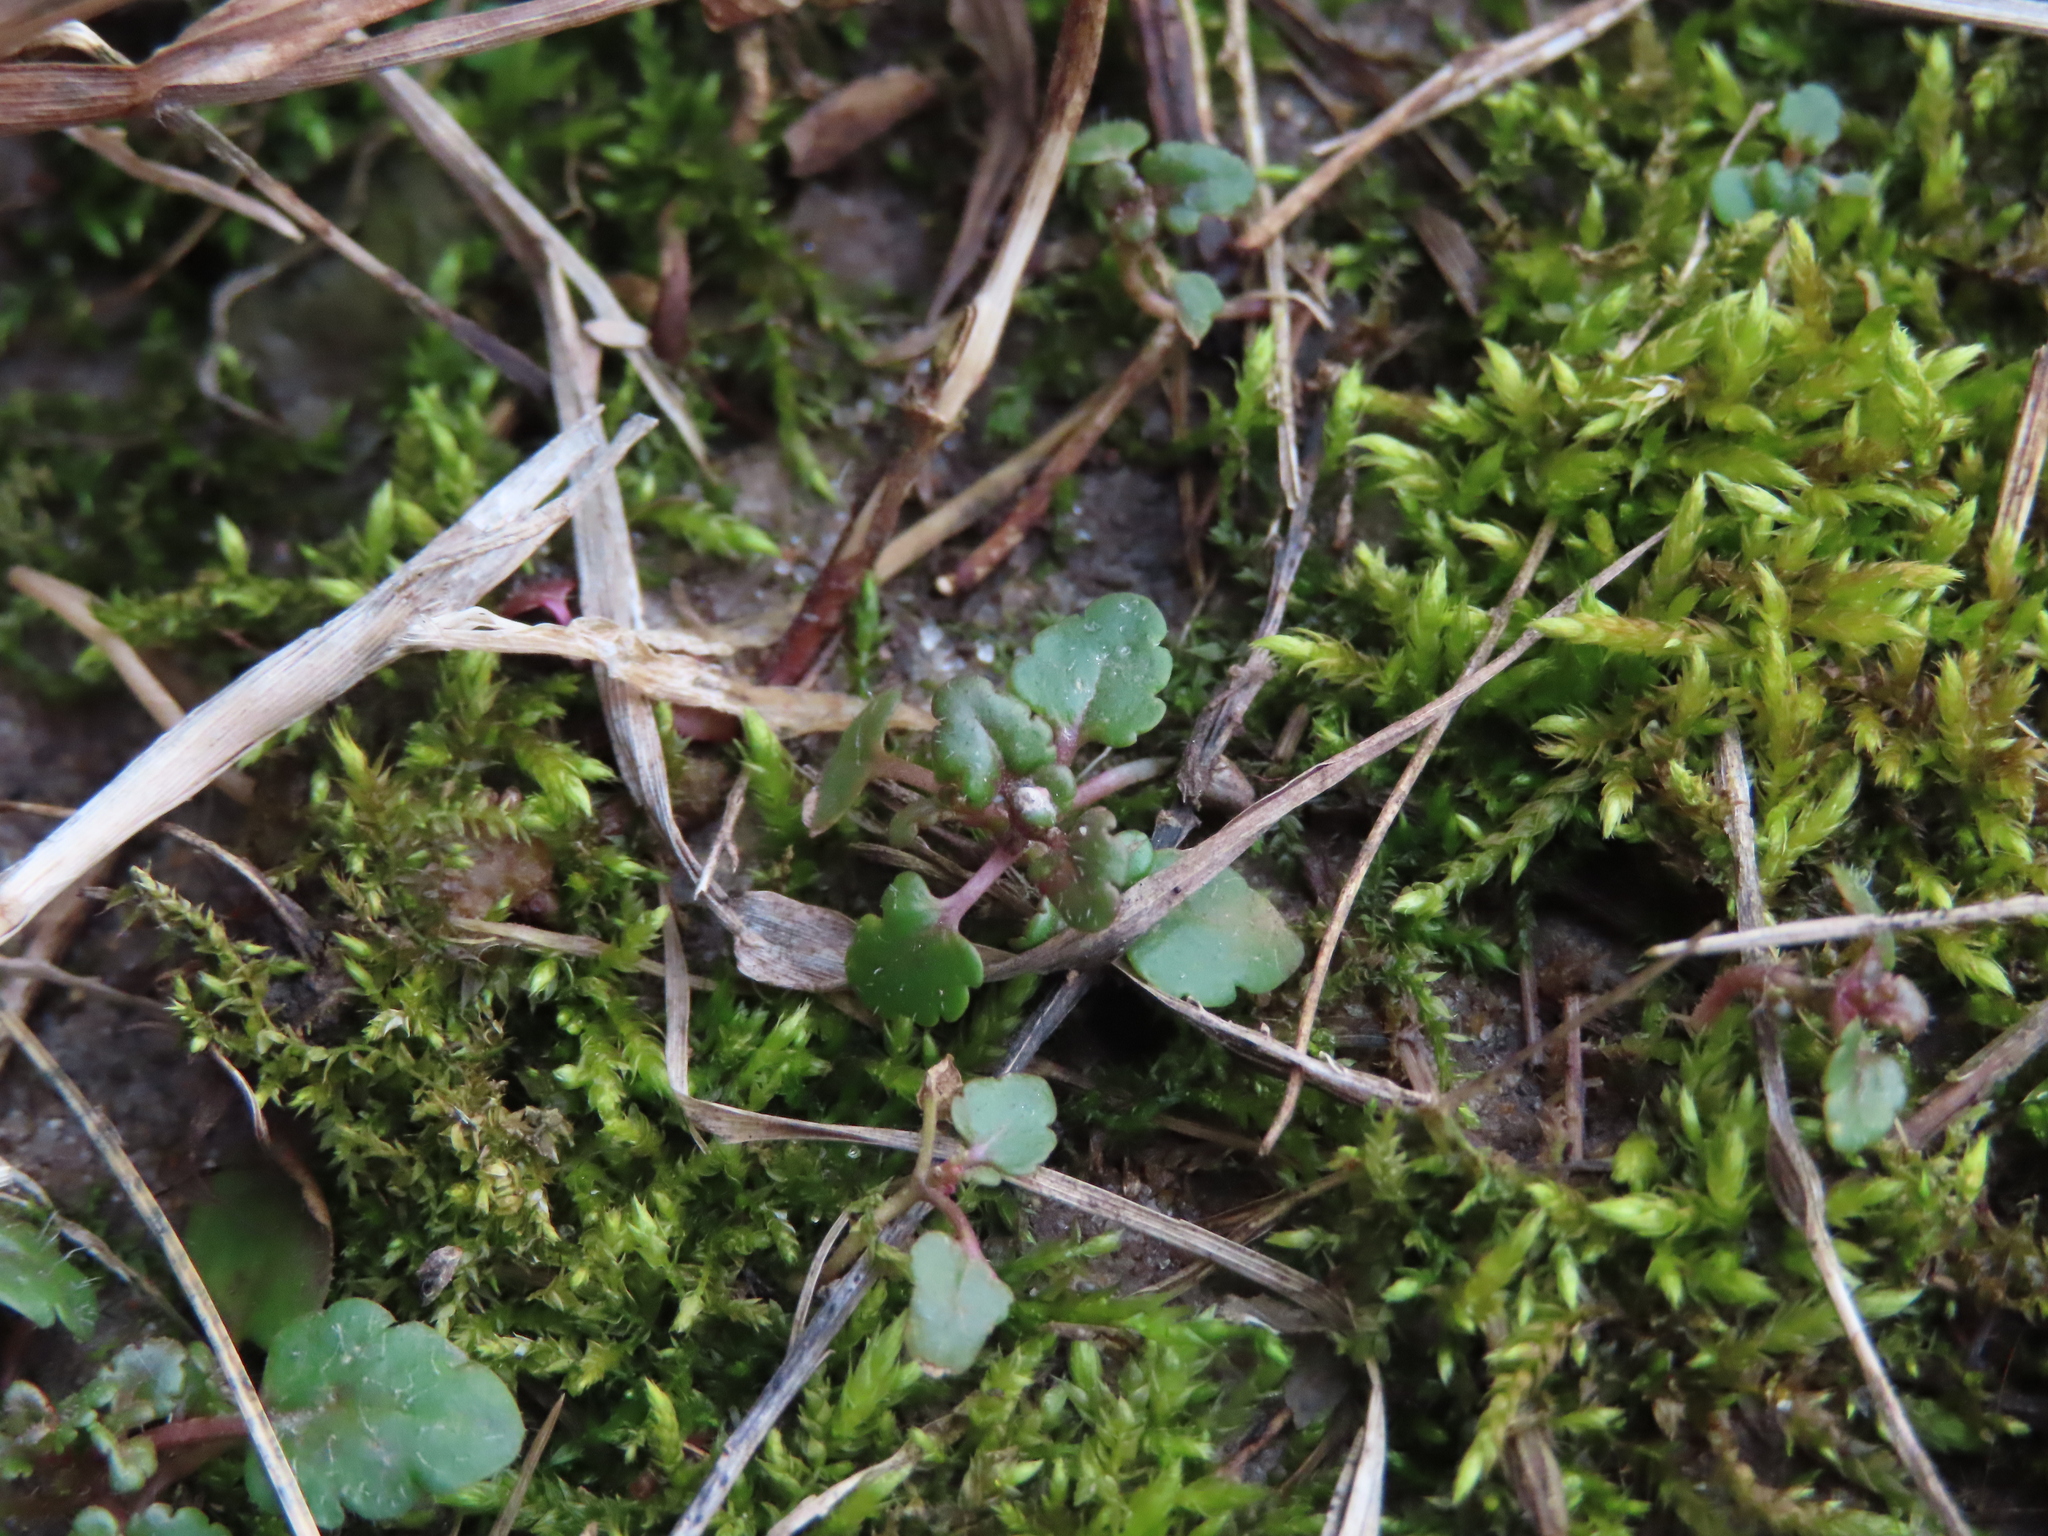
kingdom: Plantae
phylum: Tracheophyta
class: Magnoliopsida
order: Lamiales
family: Lamiaceae
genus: Glechoma
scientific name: Glechoma hederacea
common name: Ground ivy
